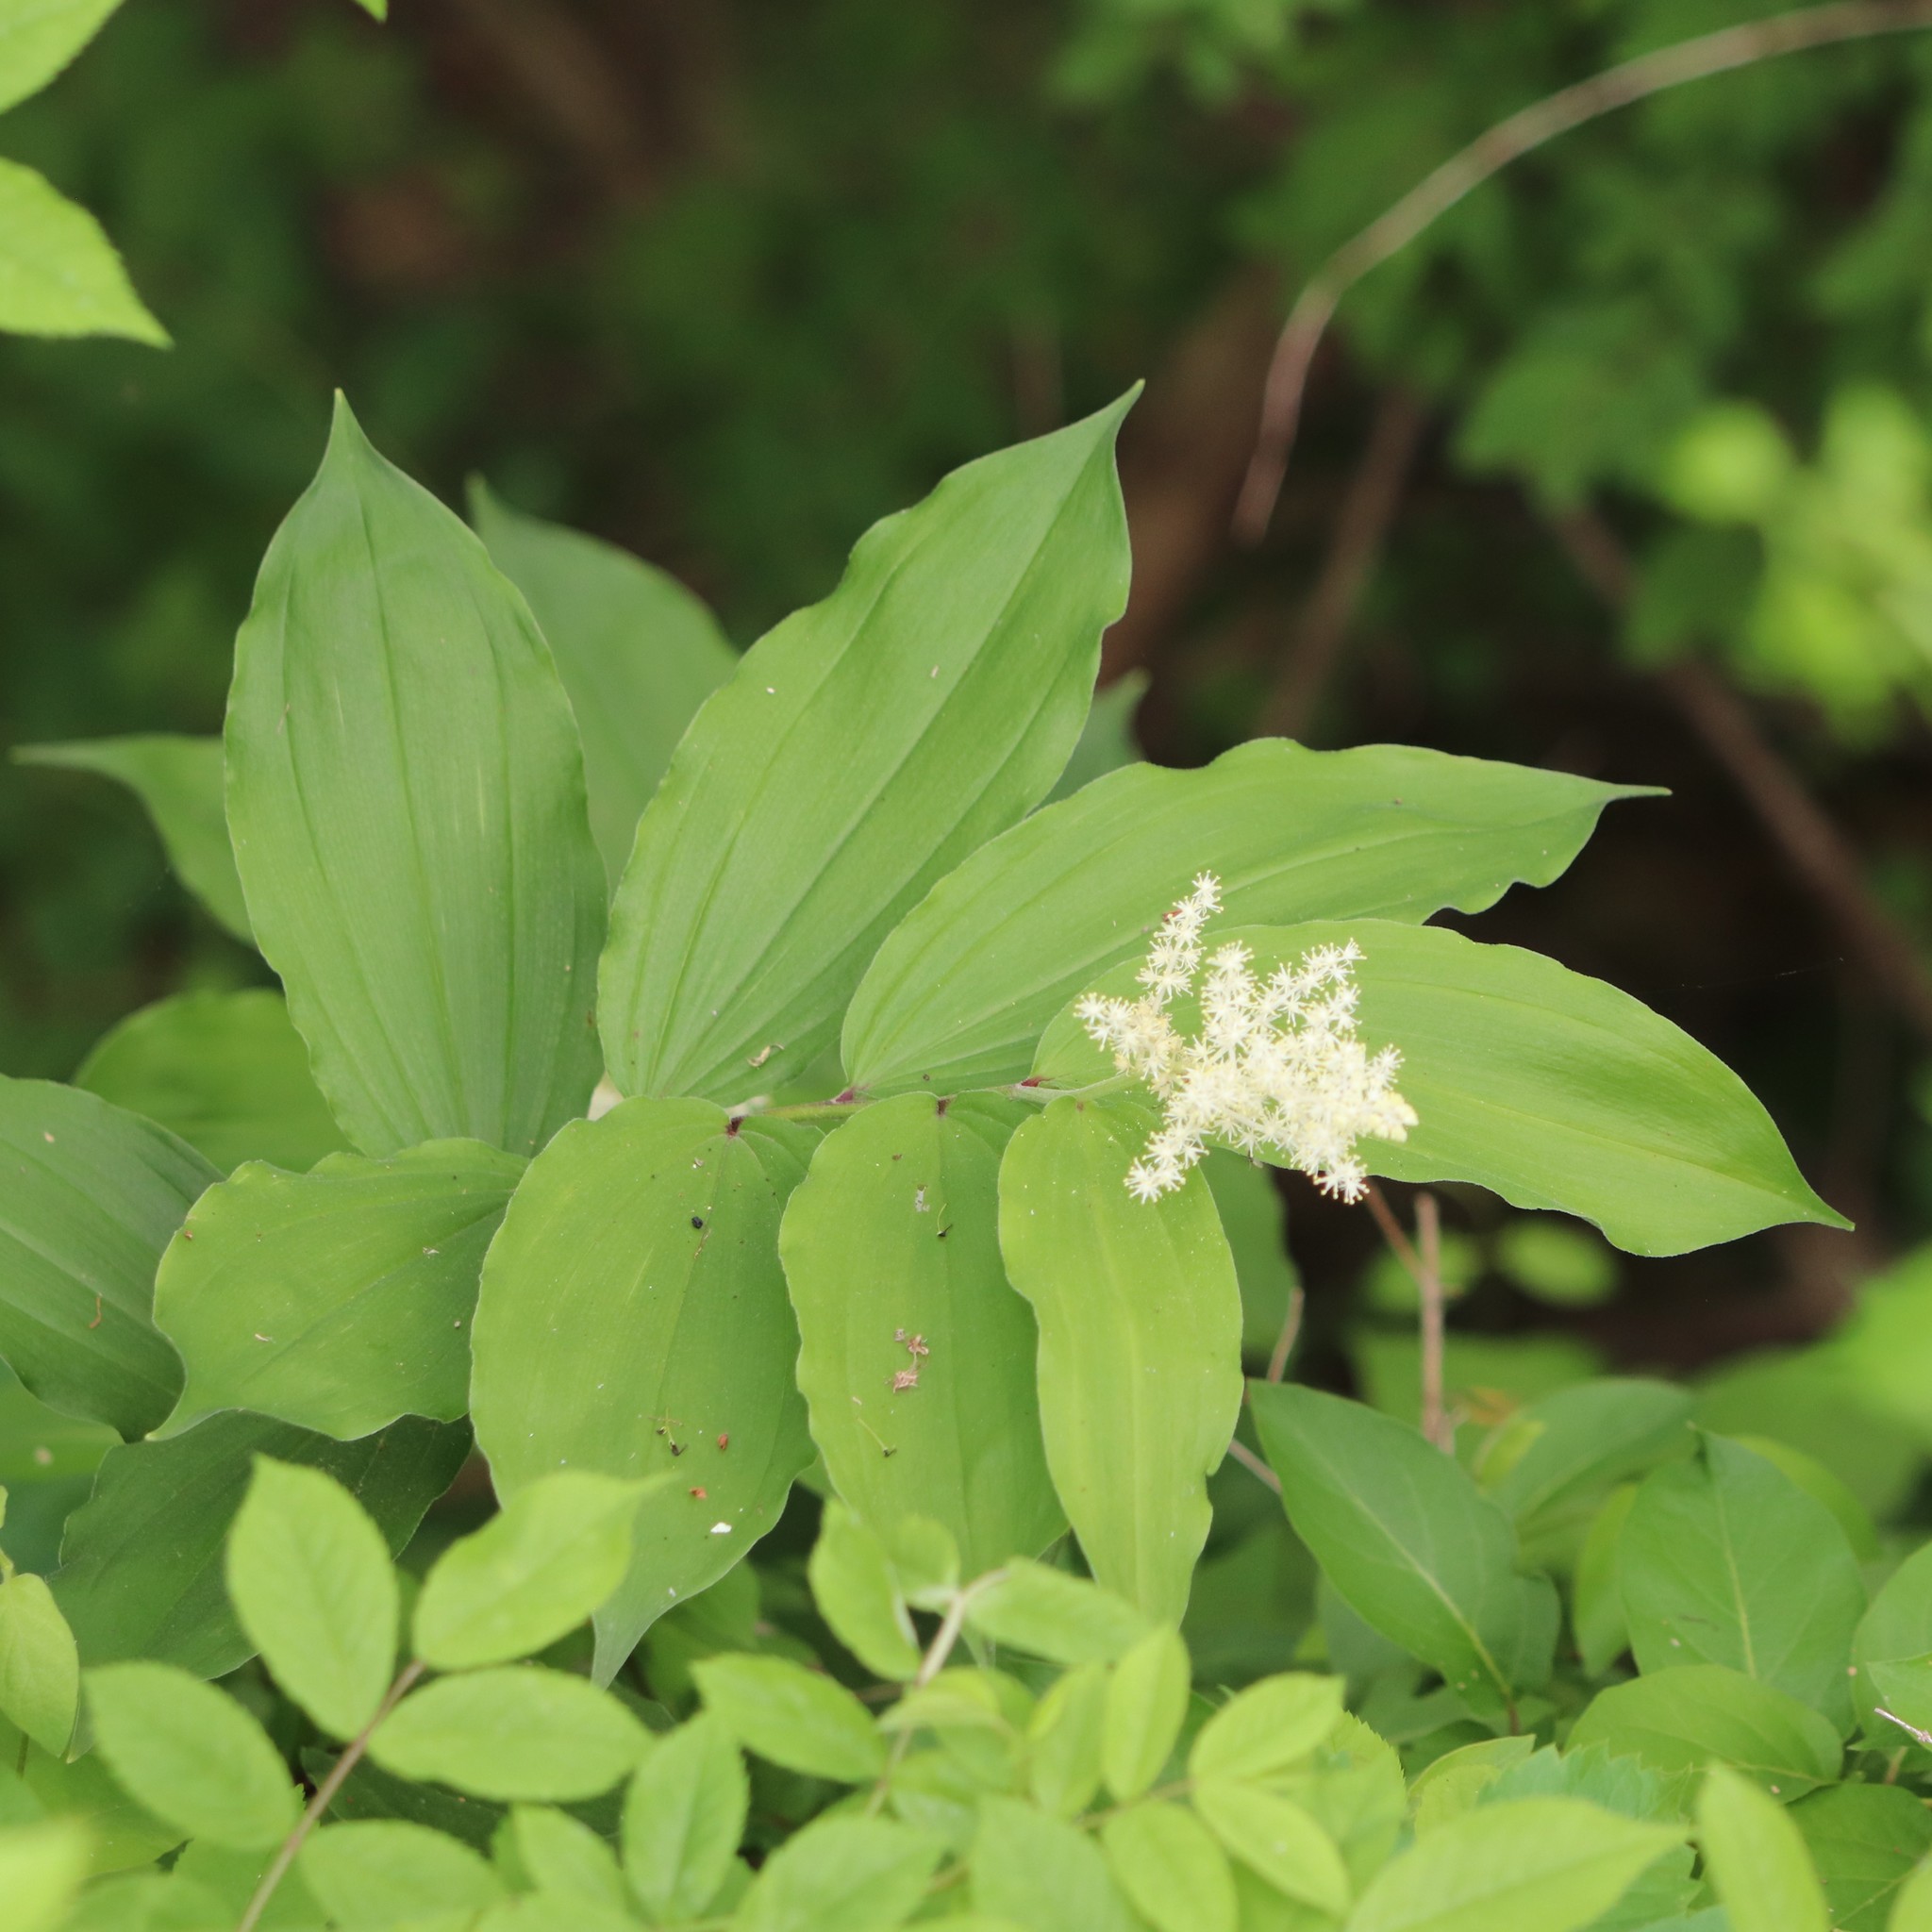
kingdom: Plantae
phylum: Tracheophyta
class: Liliopsida
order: Asparagales
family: Asparagaceae
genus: Maianthemum
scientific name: Maianthemum racemosum
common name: False spikenard
